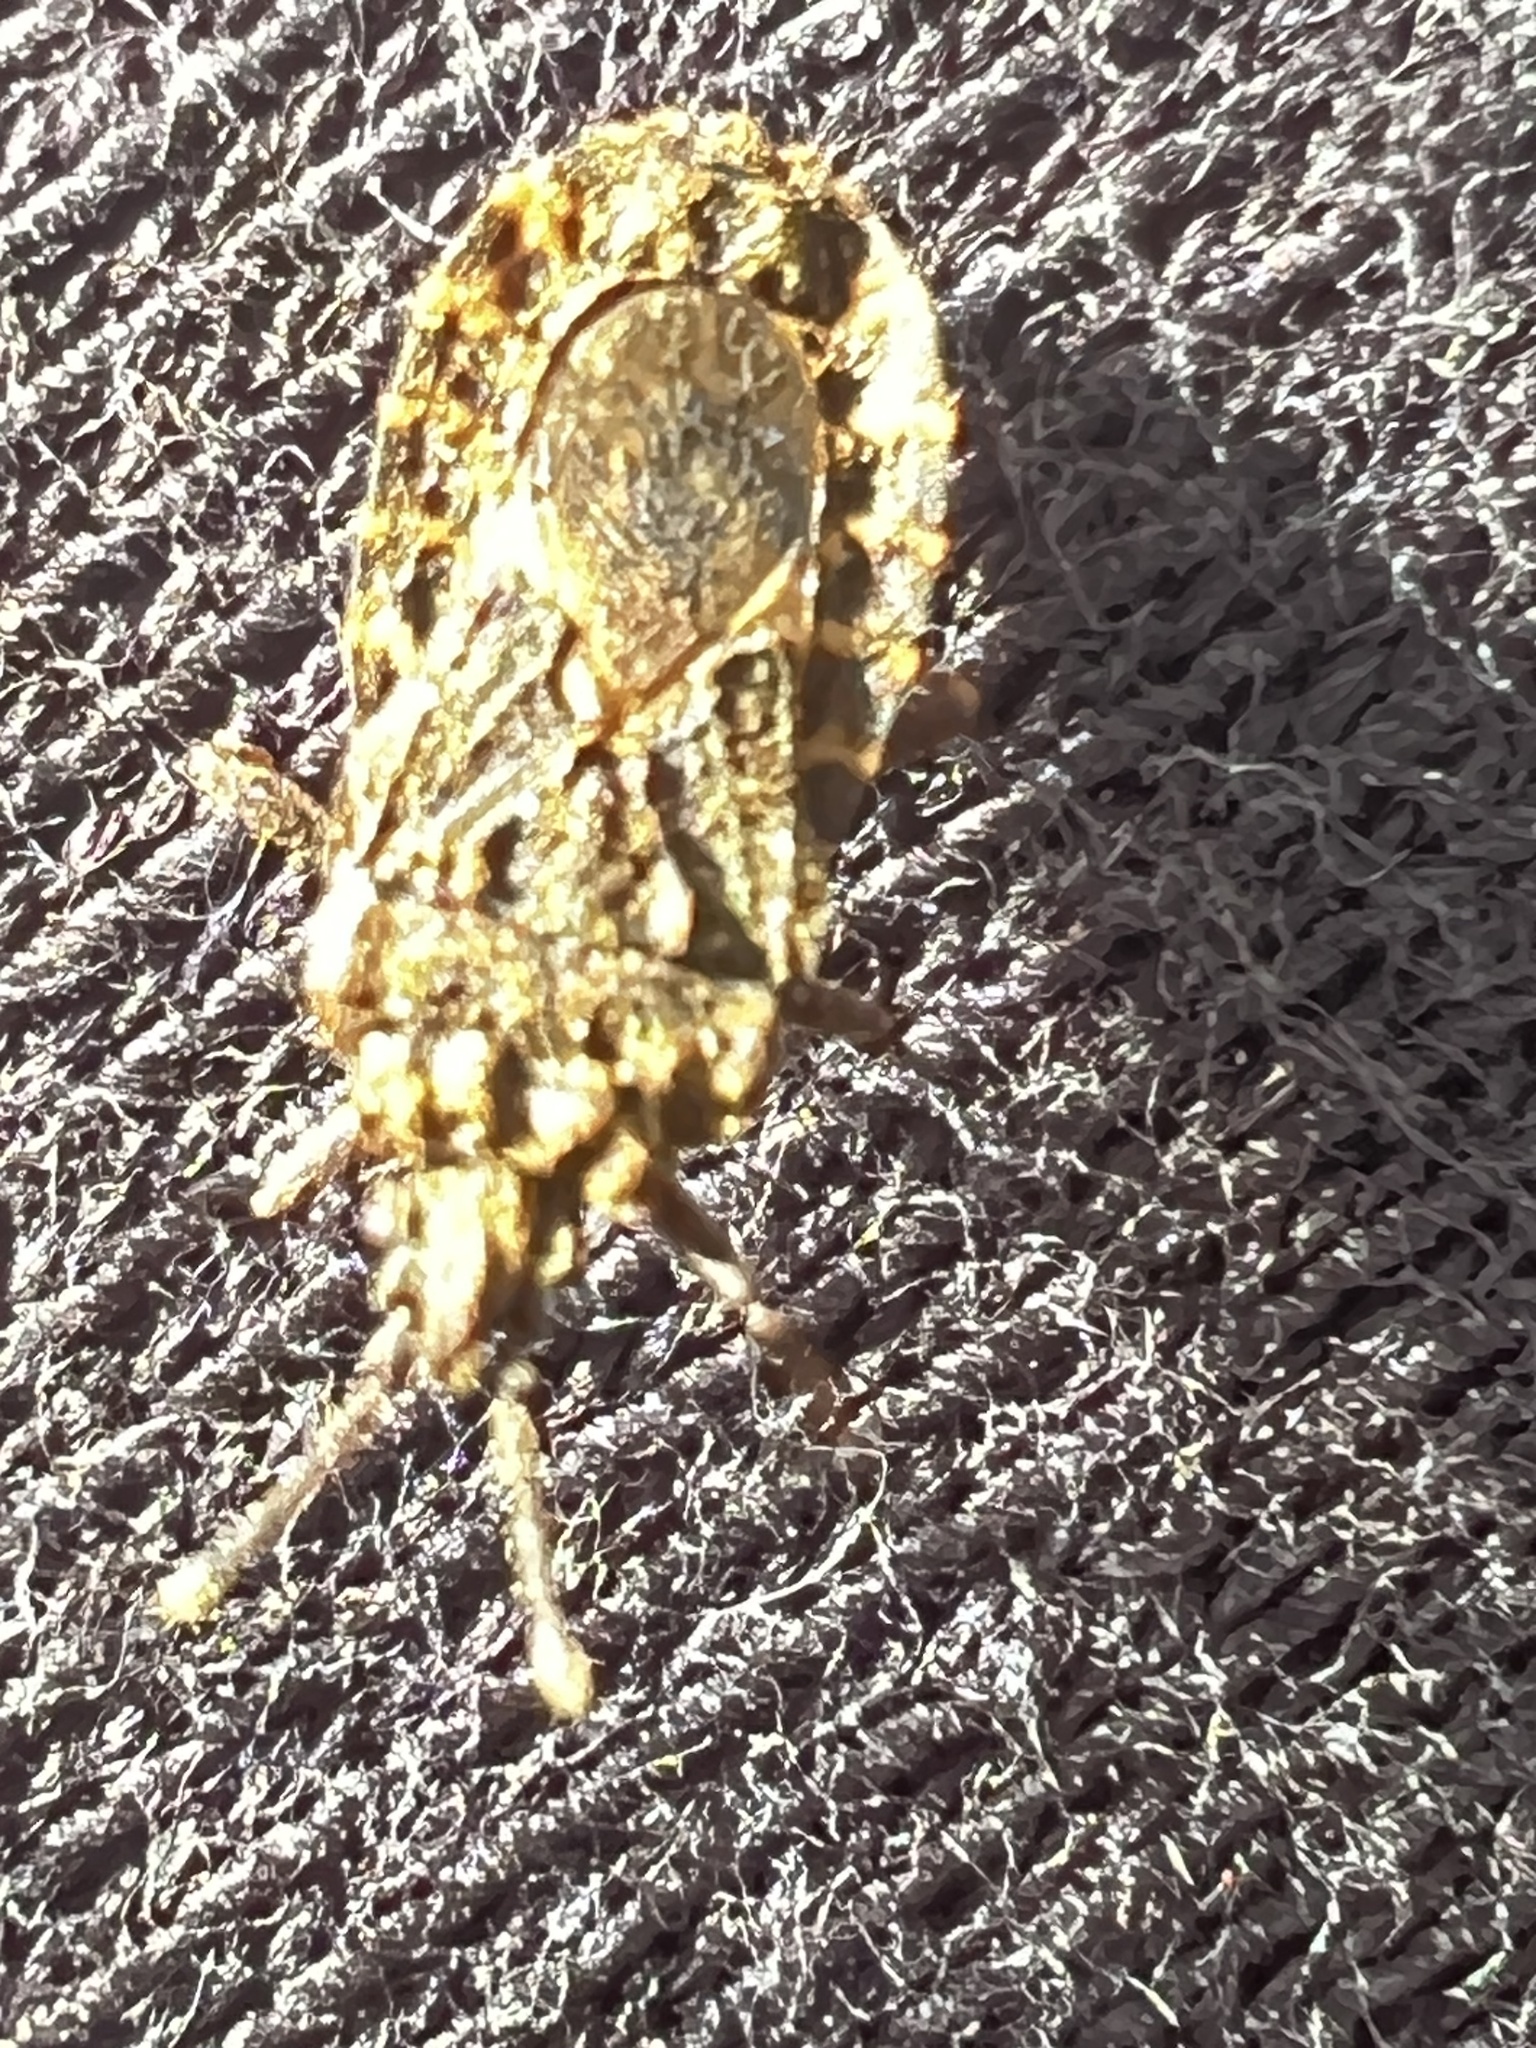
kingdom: Animalia
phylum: Arthropoda
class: Insecta
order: Hemiptera
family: Aradidae
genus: Mezira
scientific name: Mezira
